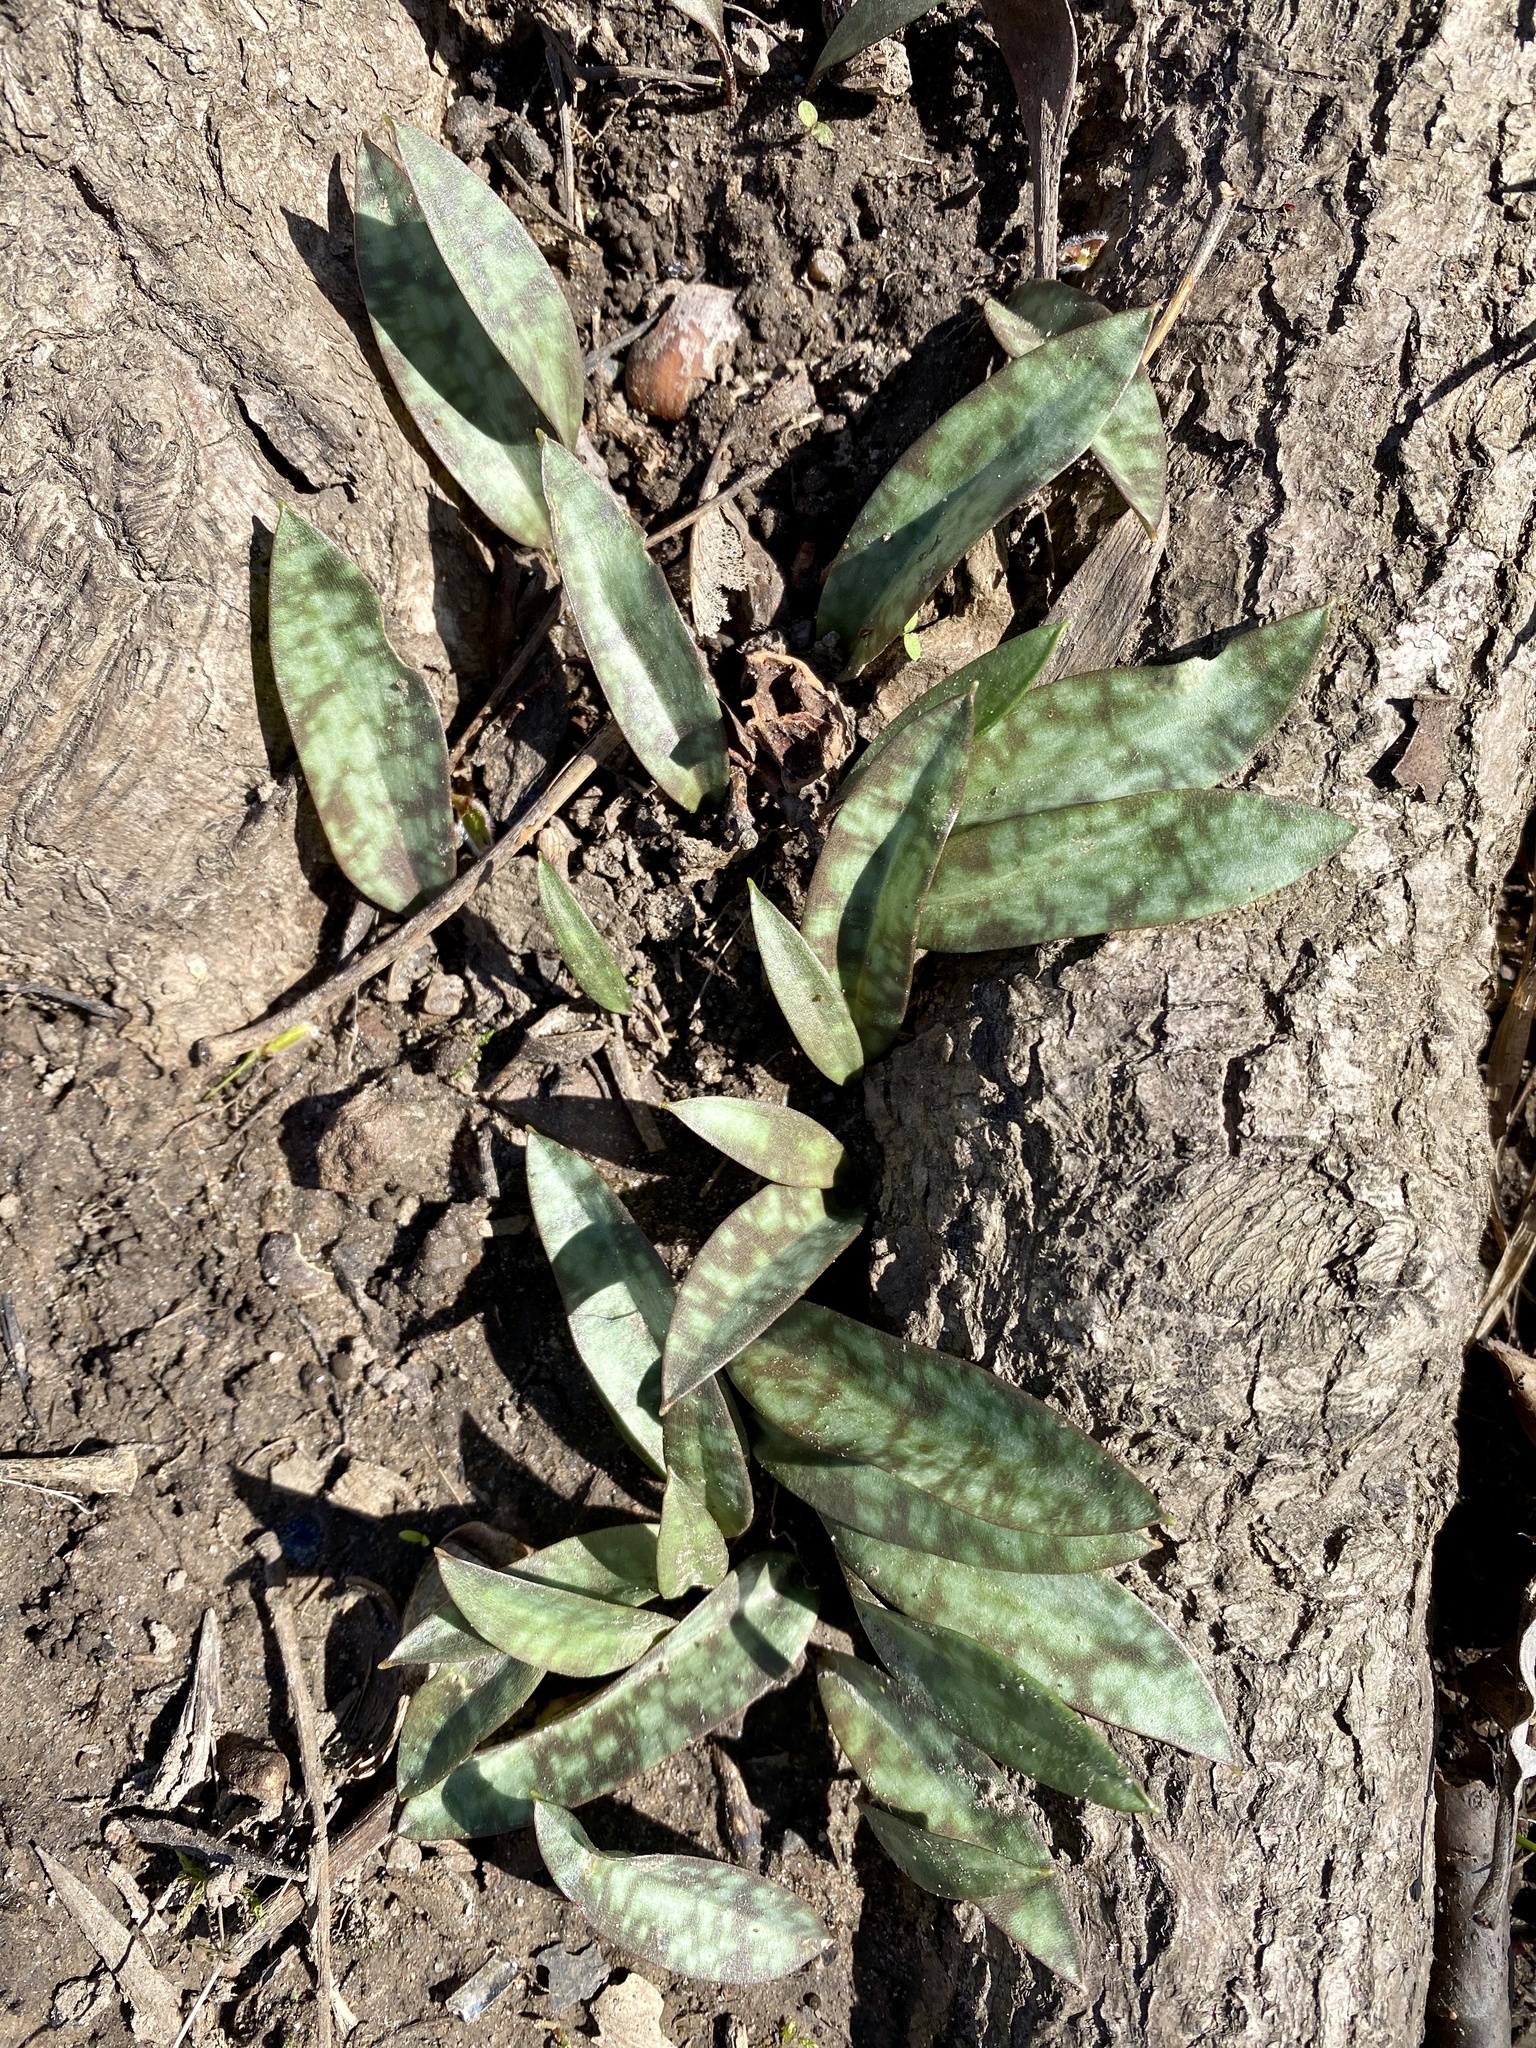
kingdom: Plantae
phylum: Tracheophyta
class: Liliopsida
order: Liliales
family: Liliaceae
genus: Erythronium
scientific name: Erythronium americanum
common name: Yellow adder's-tongue
